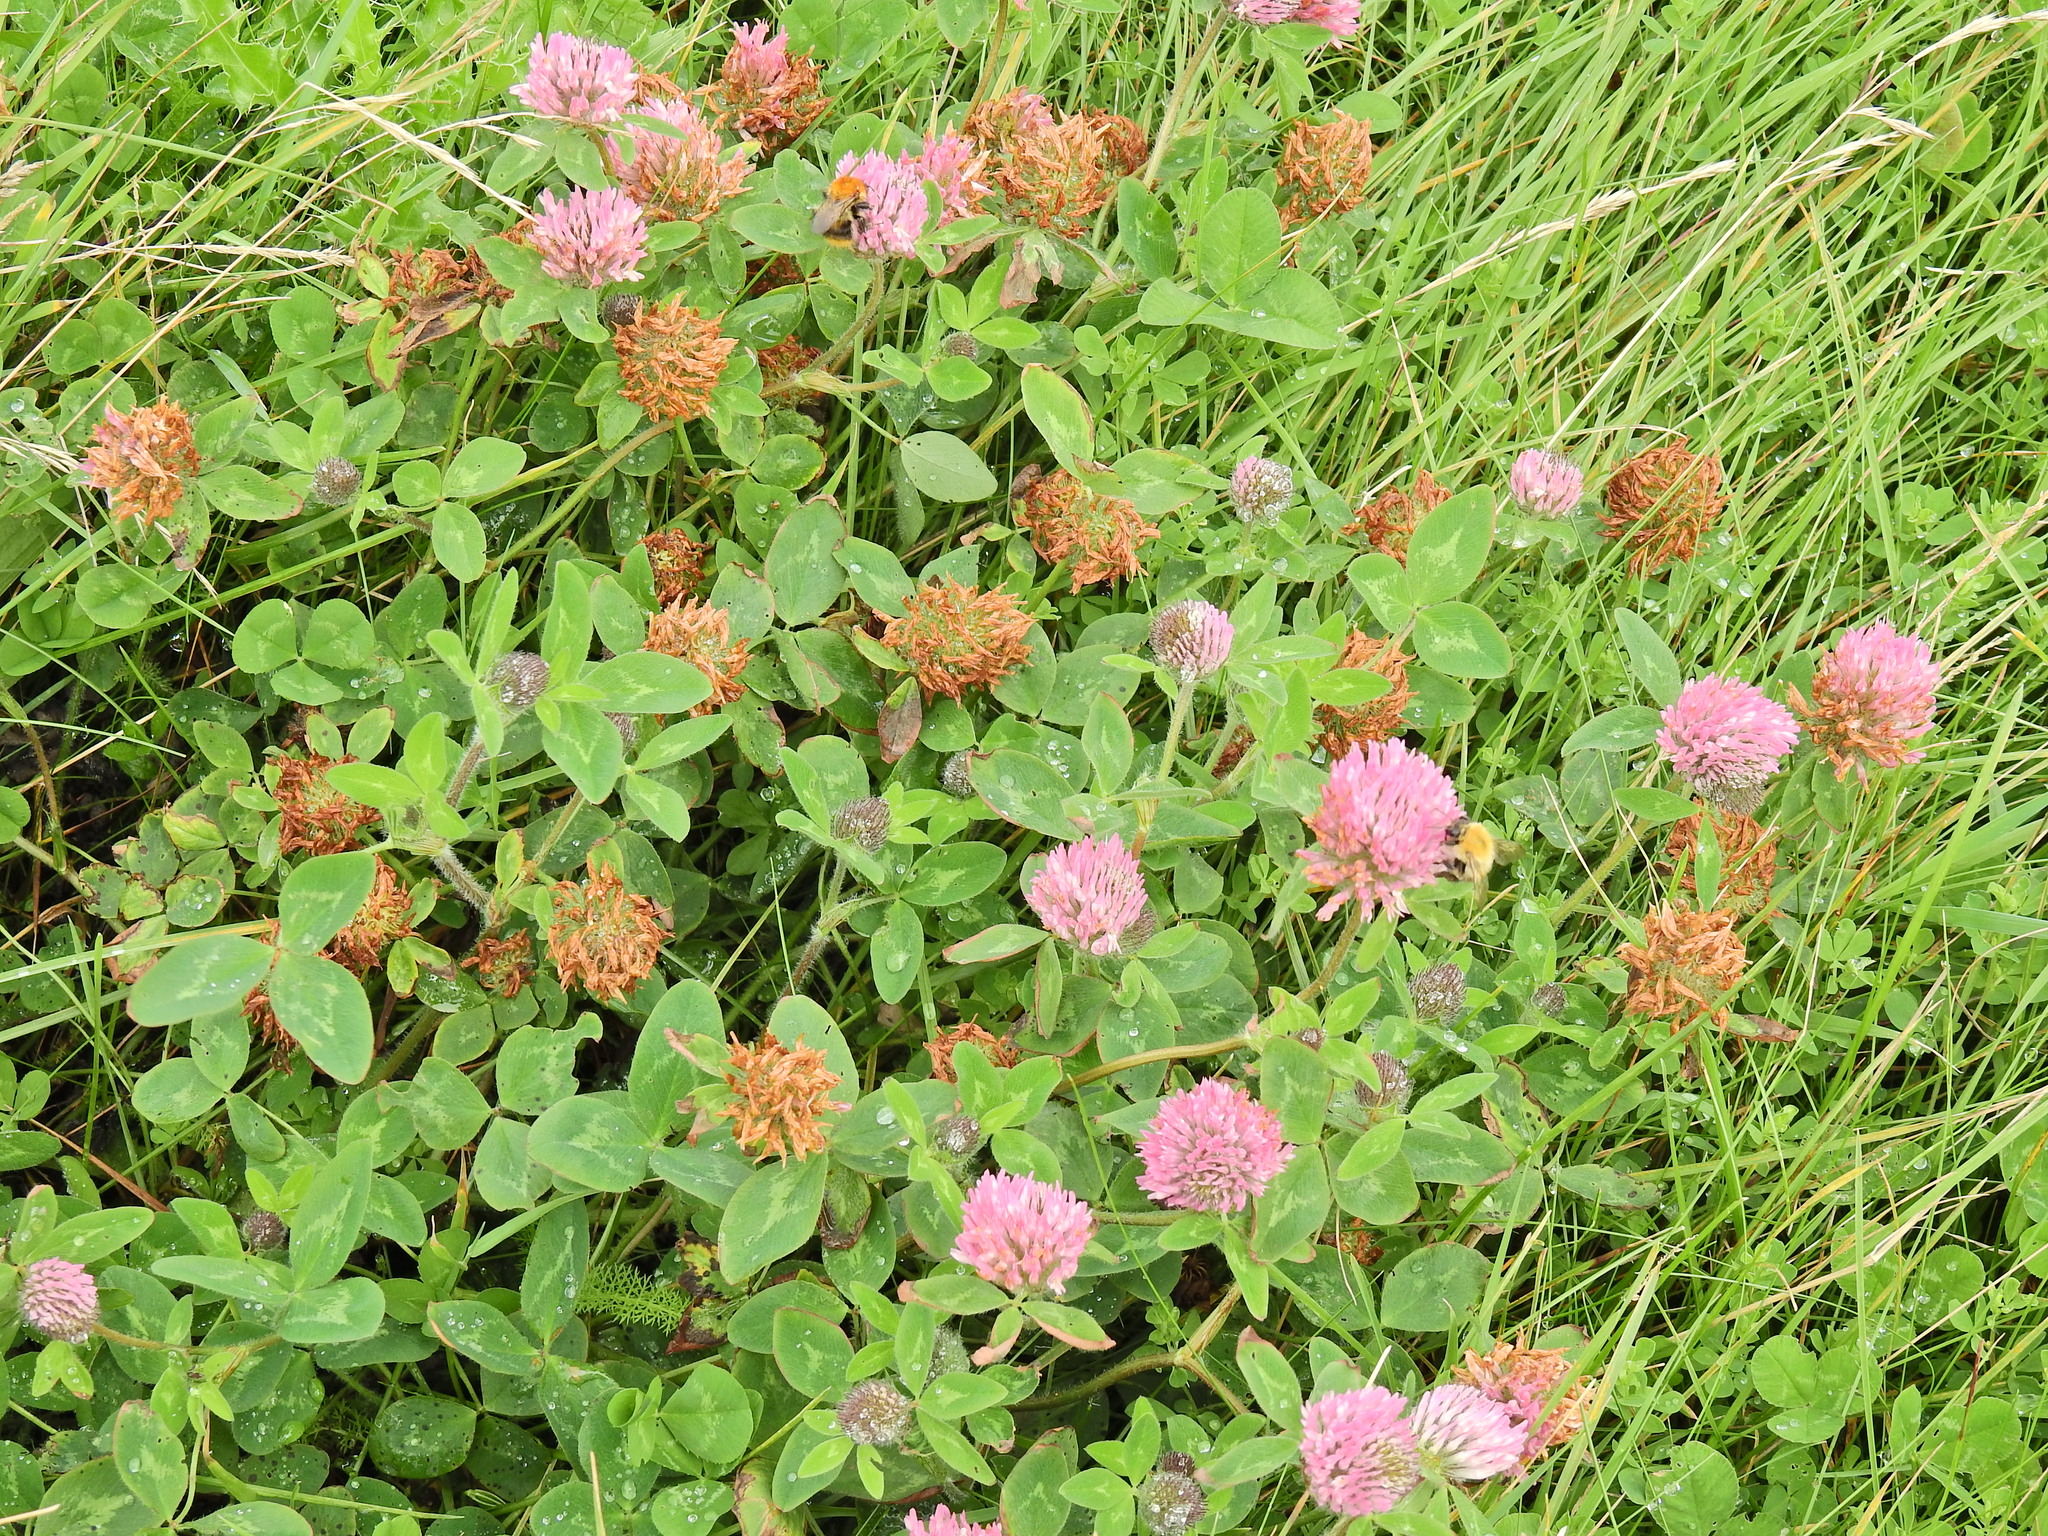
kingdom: Plantae
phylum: Tracheophyta
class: Magnoliopsida
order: Fabales
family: Fabaceae
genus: Trifolium
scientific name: Trifolium pratense
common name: Red clover
